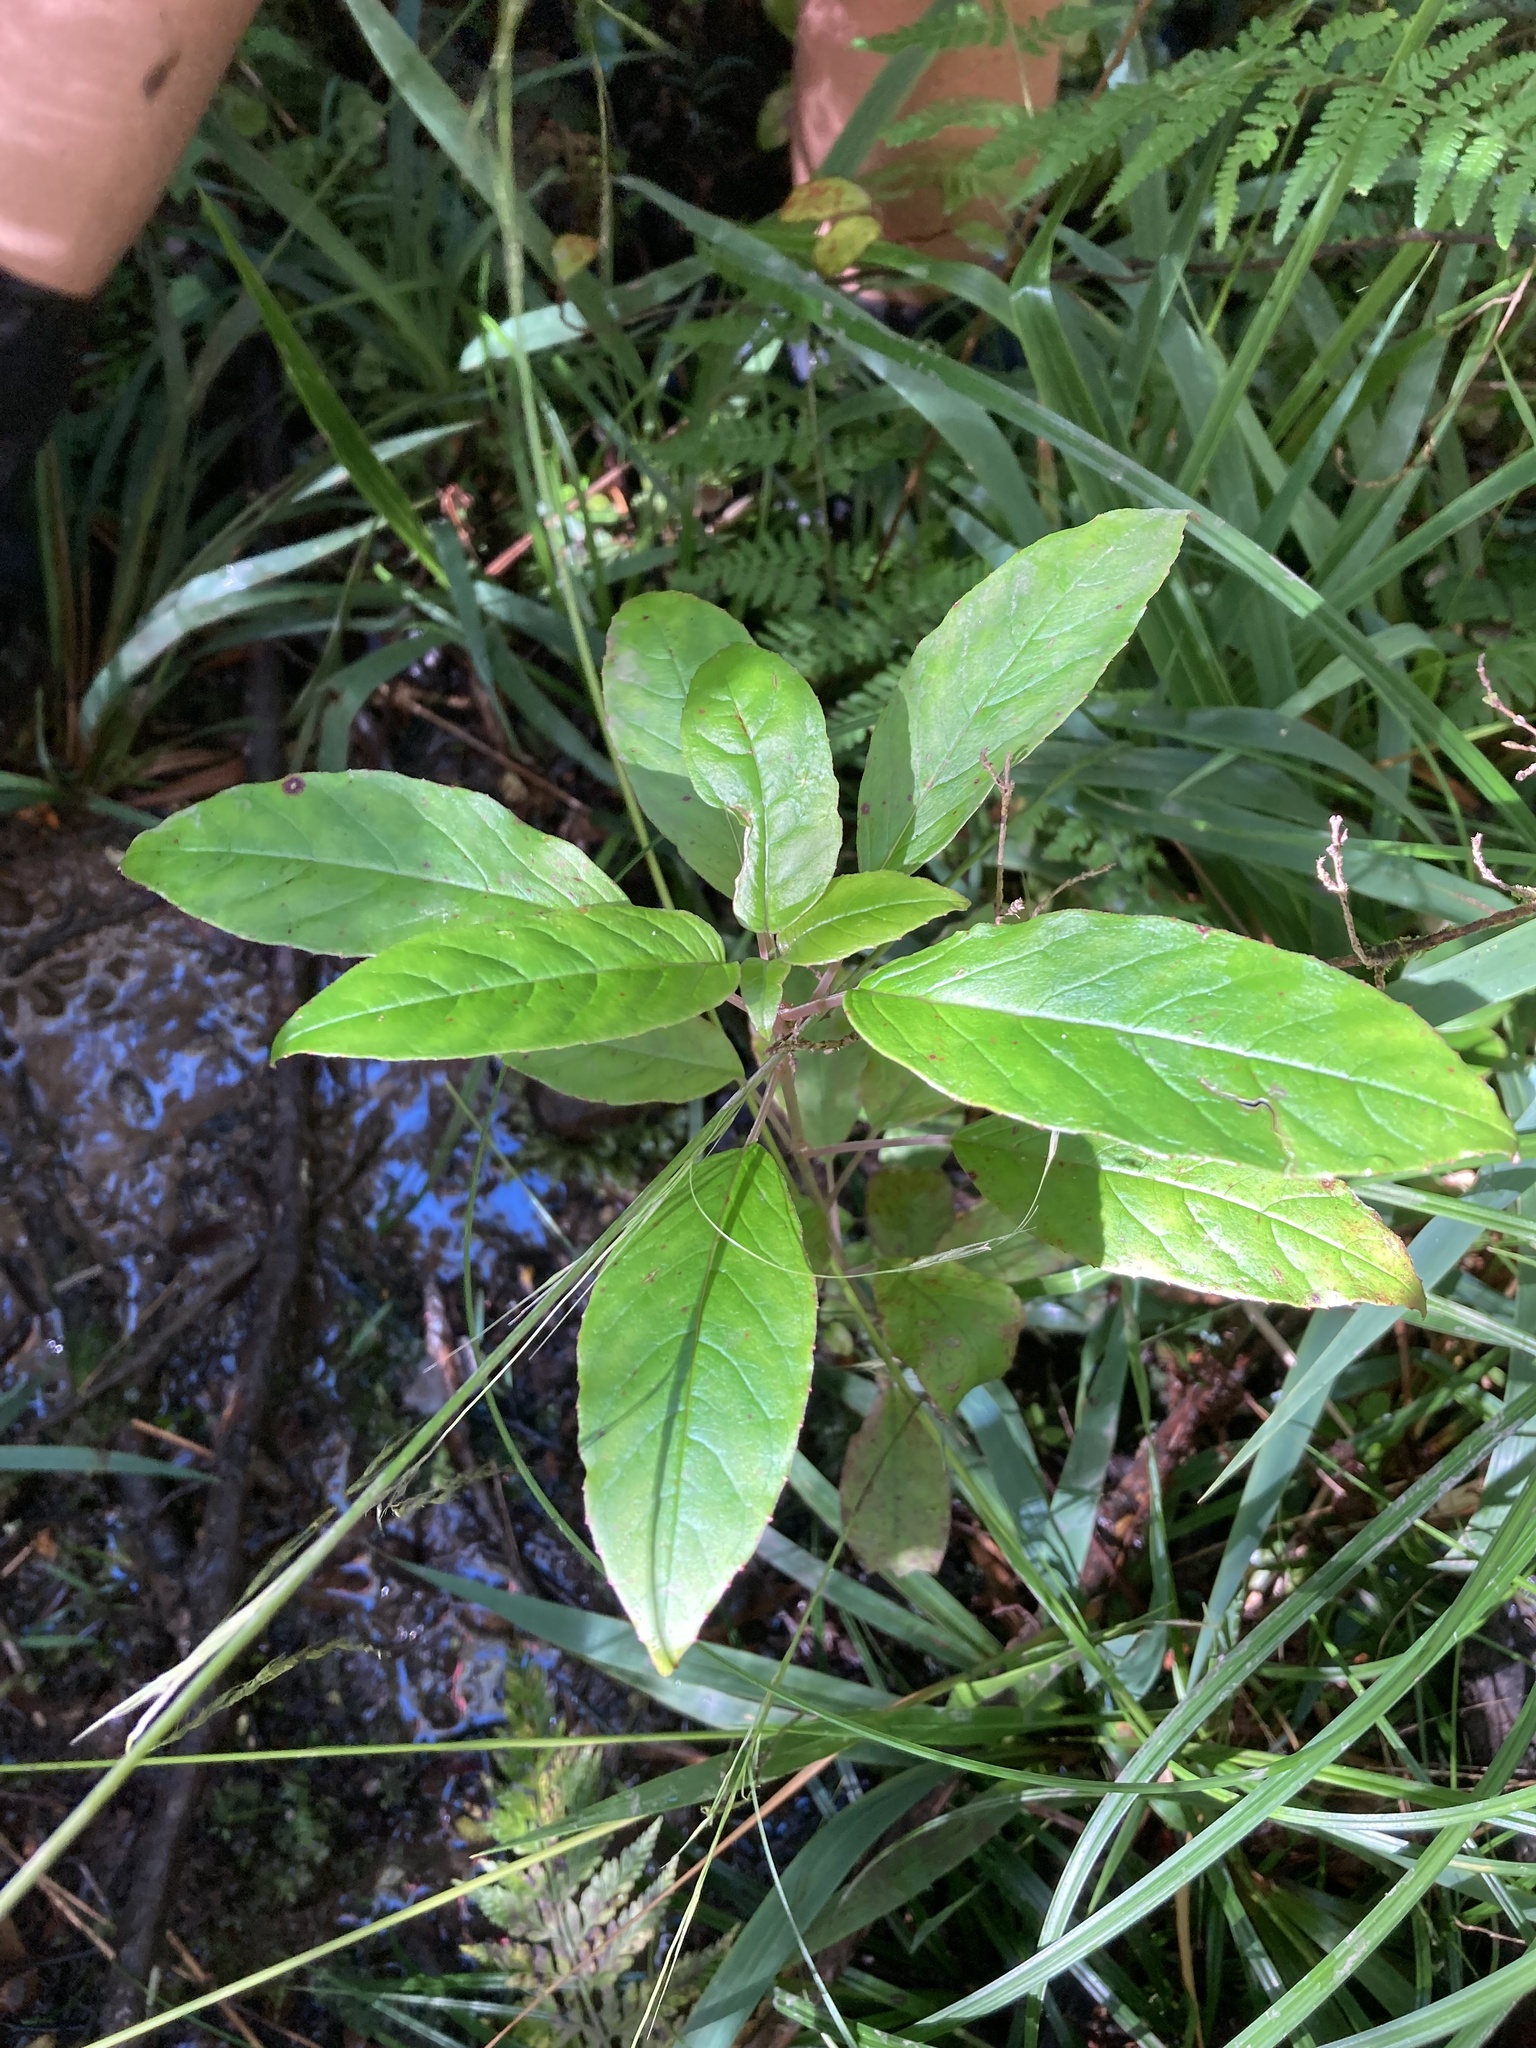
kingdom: Plantae
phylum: Tracheophyta
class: Magnoliopsida
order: Myrtales
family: Onagraceae
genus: Fuchsia
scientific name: Fuchsia excorticata
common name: Tree fuchsia
